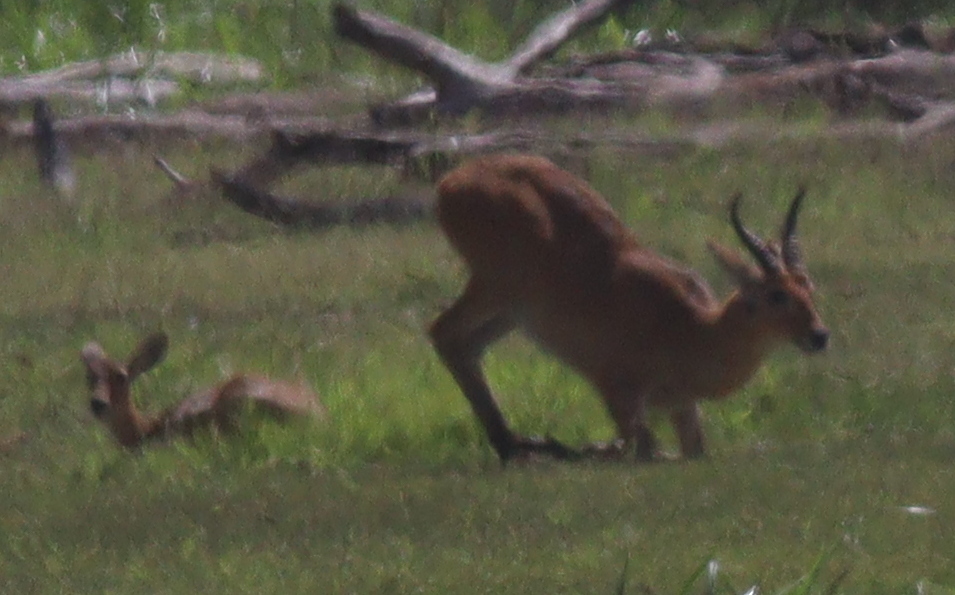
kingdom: Animalia
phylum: Chordata
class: Mammalia
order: Artiodactyla
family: Bovidae
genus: Redunca
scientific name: Redunca redunca
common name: Common reedbuck
